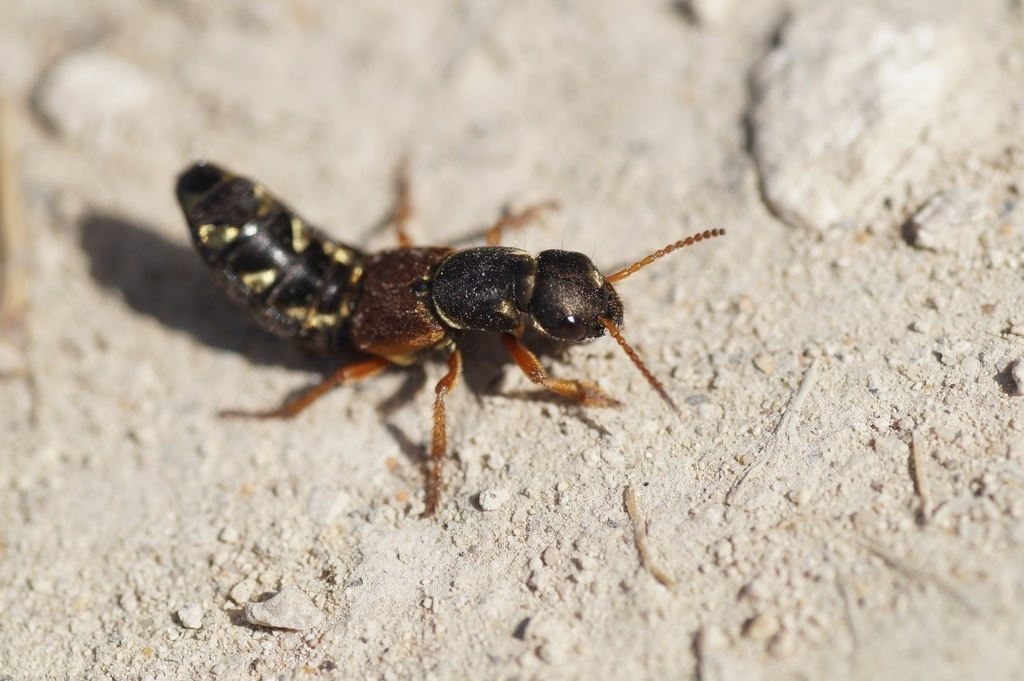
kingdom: Animalia
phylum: Arthropoda
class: Insecta
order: Coleoptera
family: Staphylinidae
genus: Staphylinus
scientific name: Staphylinus caesareus
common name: Staph beetle
